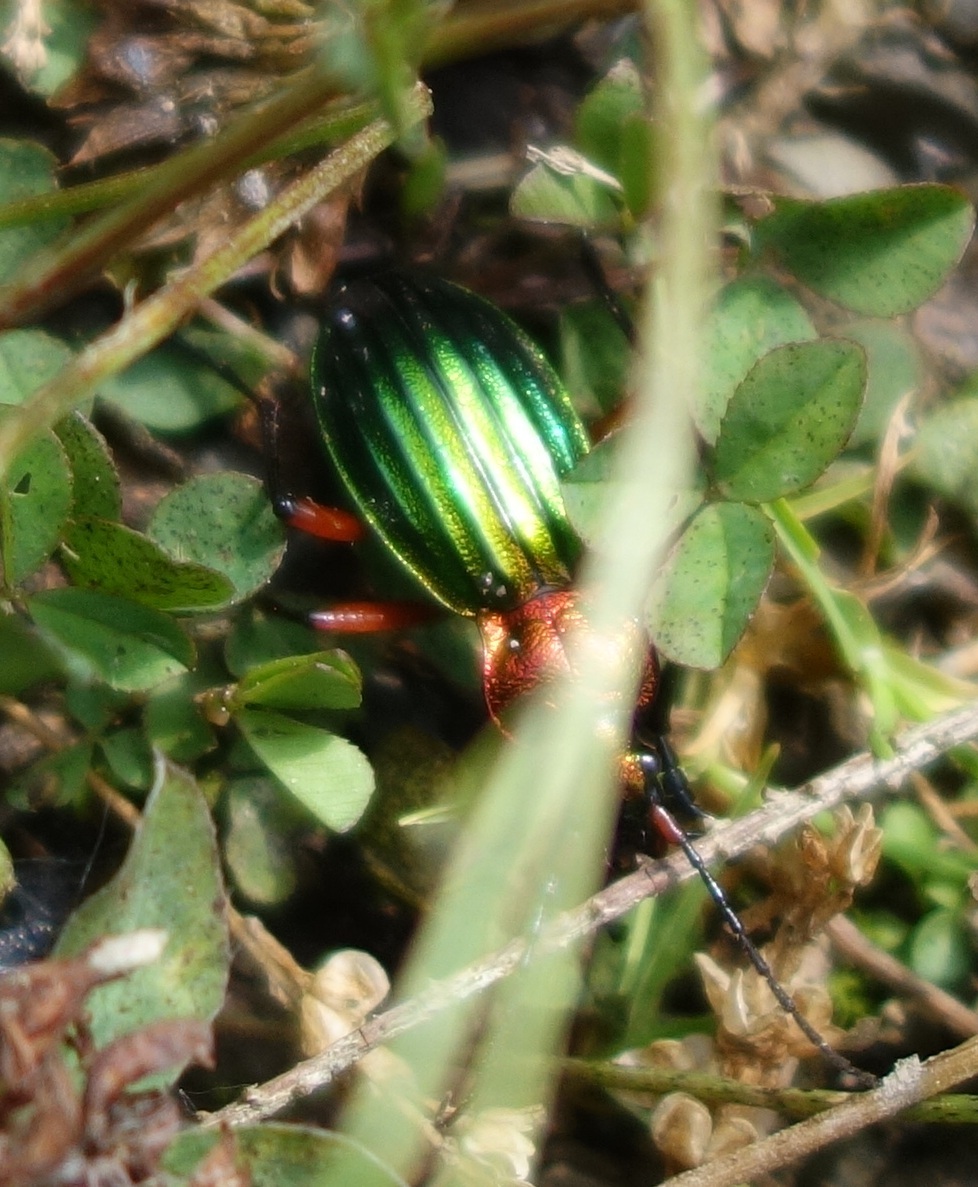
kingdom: Animalia
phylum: Arthropoda
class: Insecta
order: Coleoptera
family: Carabidae
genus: Carabus
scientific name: Carabus auronitens
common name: Carabus auronitens
